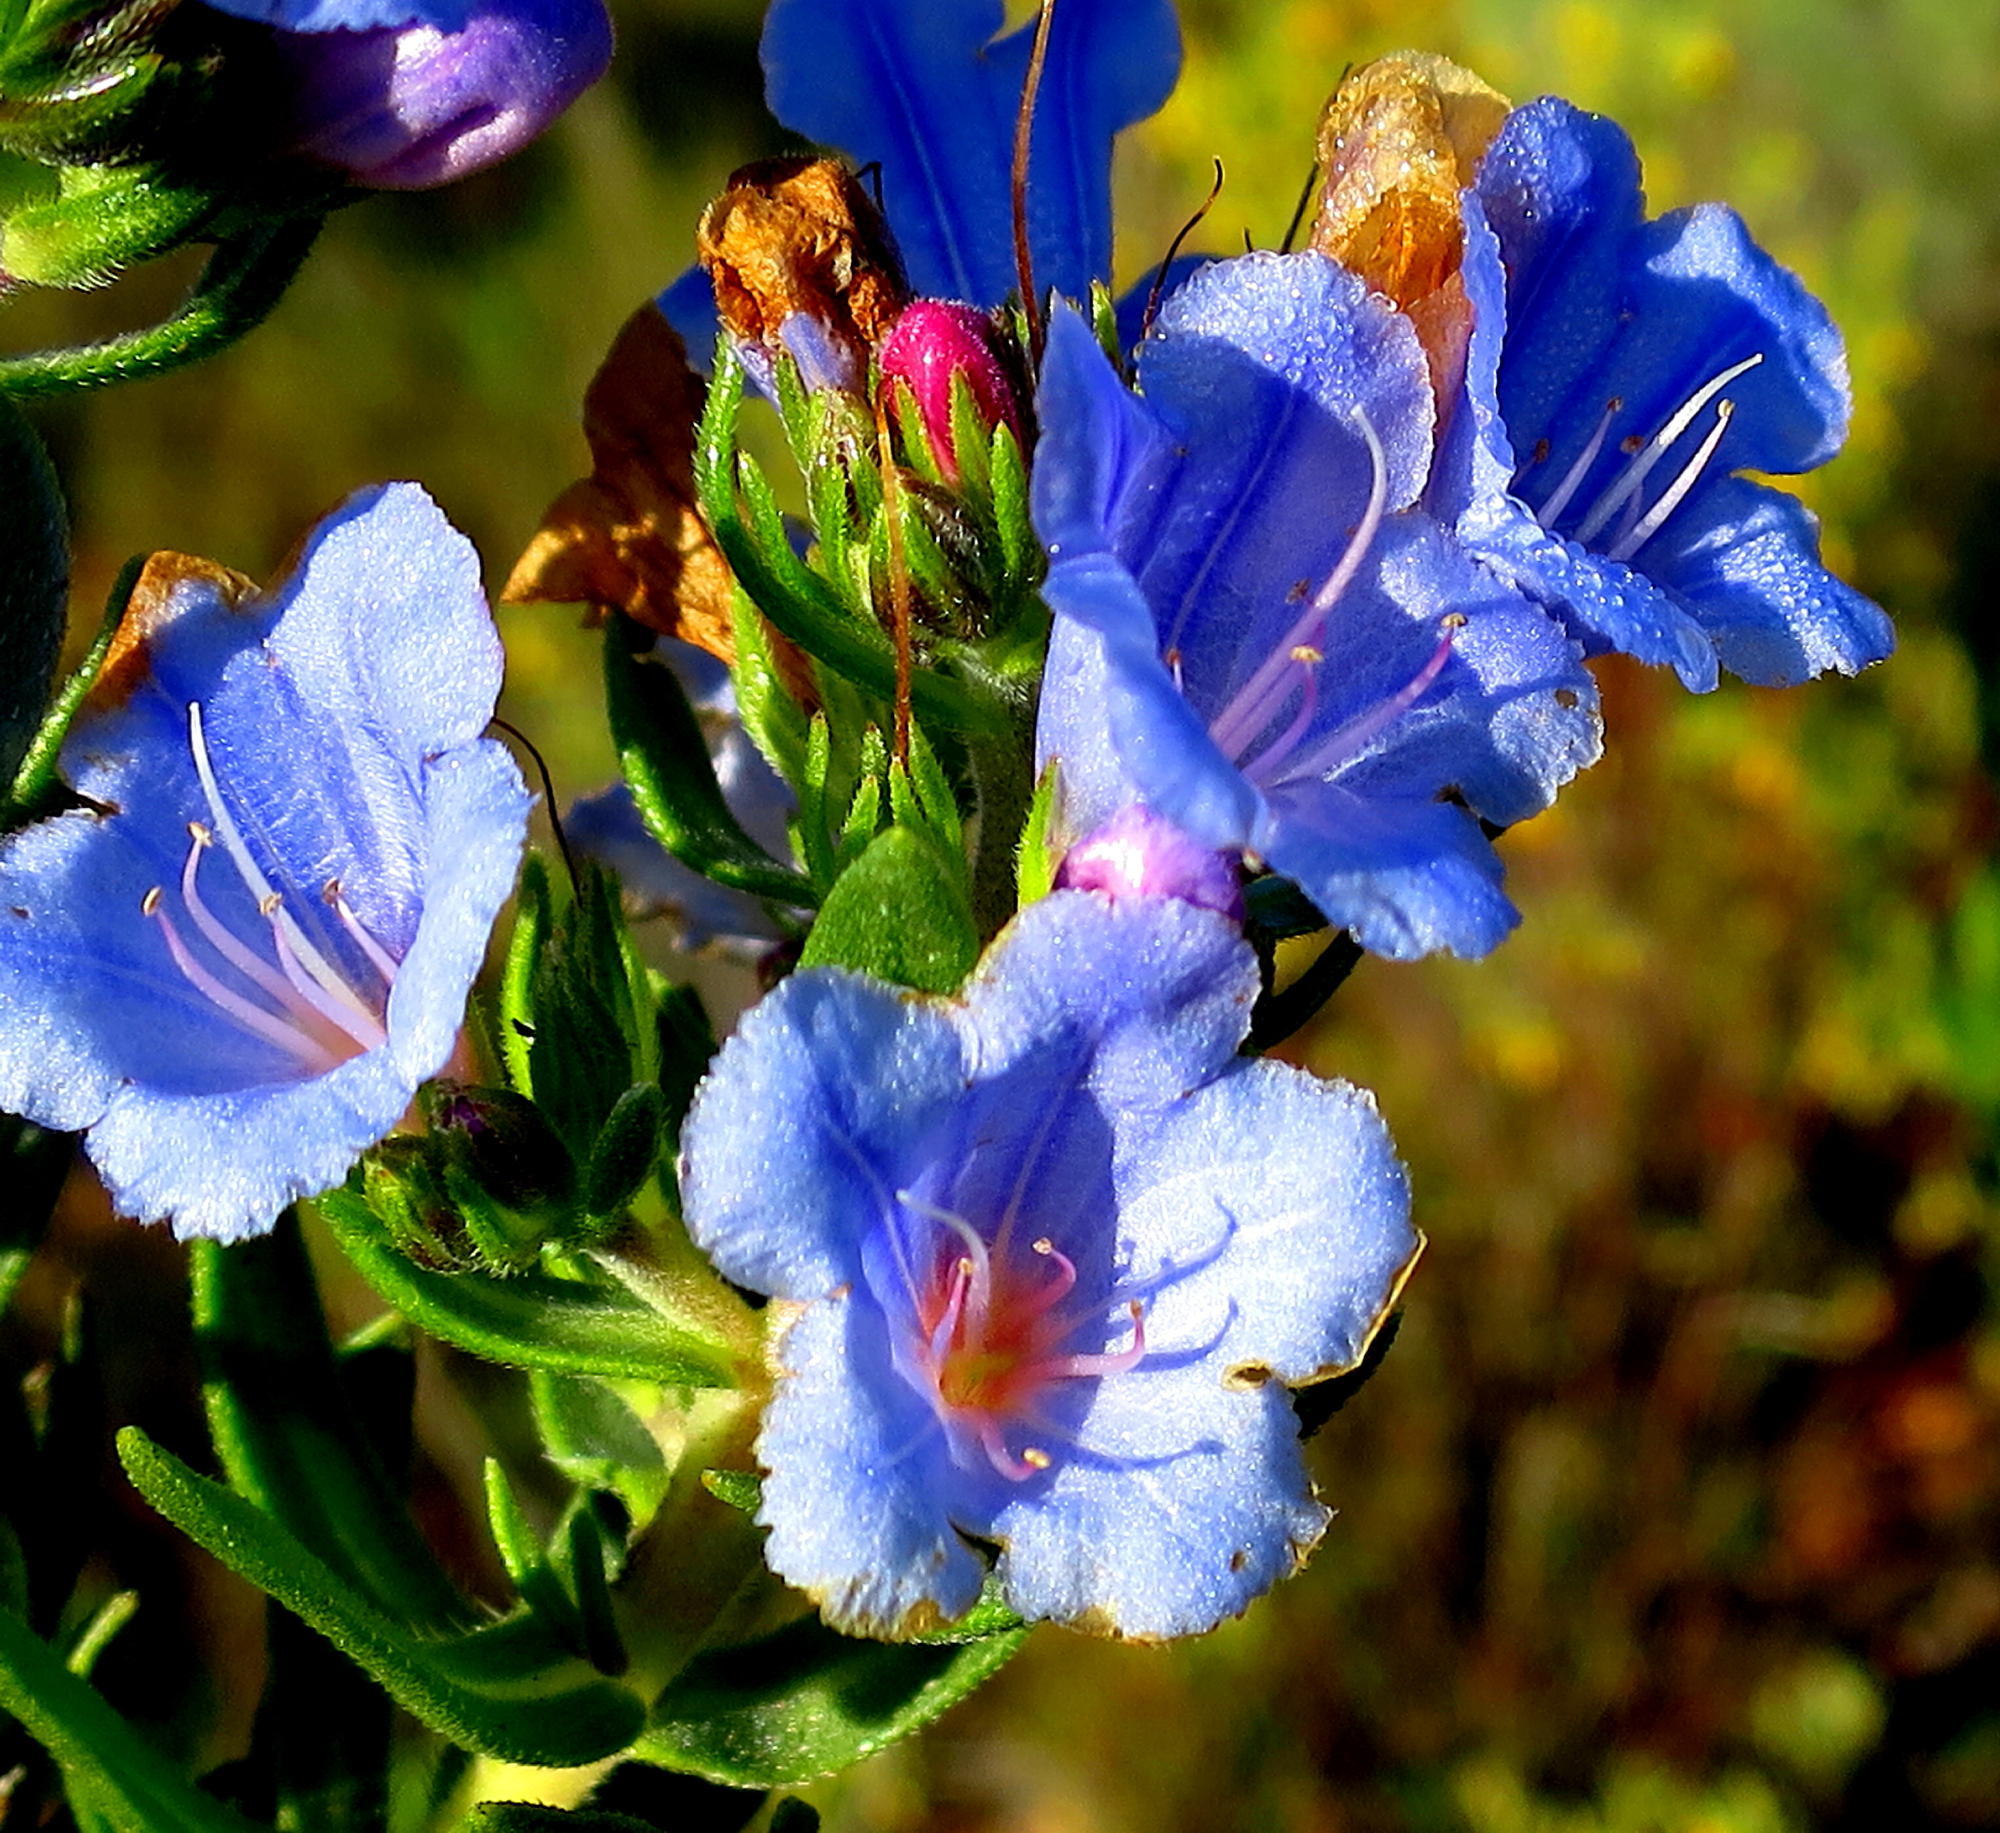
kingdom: Plantae
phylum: Tracheophyta
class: Magnoliopsida
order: Boraginales
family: Boraginaceae
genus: Lobostemon
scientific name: Lobostemon fruticosus
